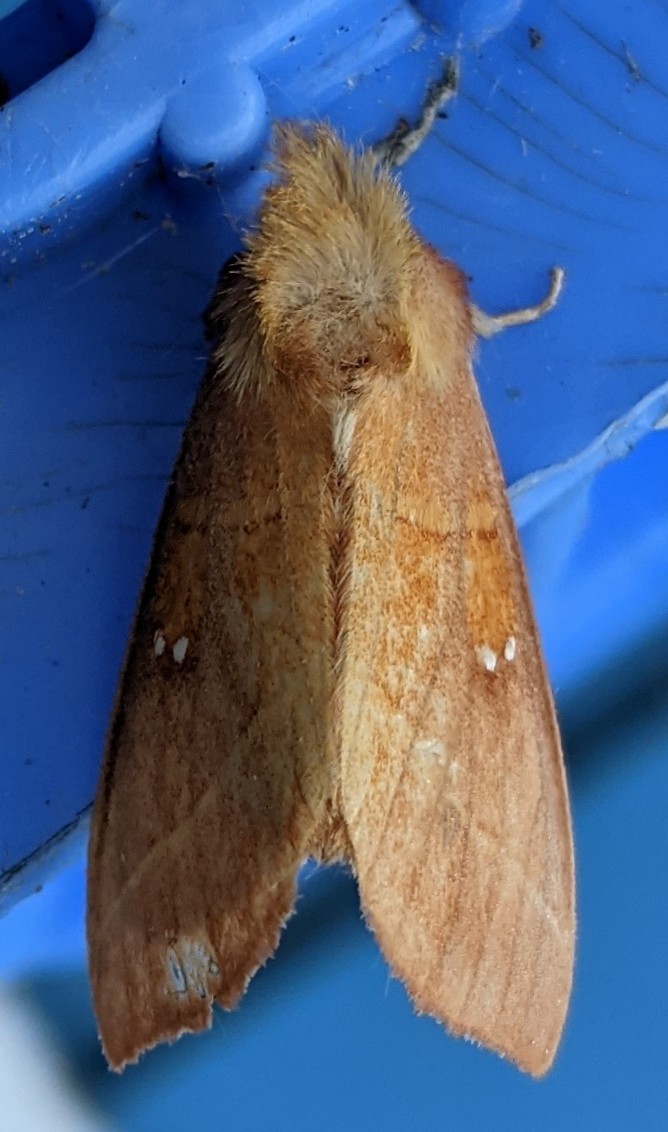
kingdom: Animalia
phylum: Arthropoda
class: Insecta
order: Lepidoptera
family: Notodontidae
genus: Nadata
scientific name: Nadata gibbosa
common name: White-dotted prominent
